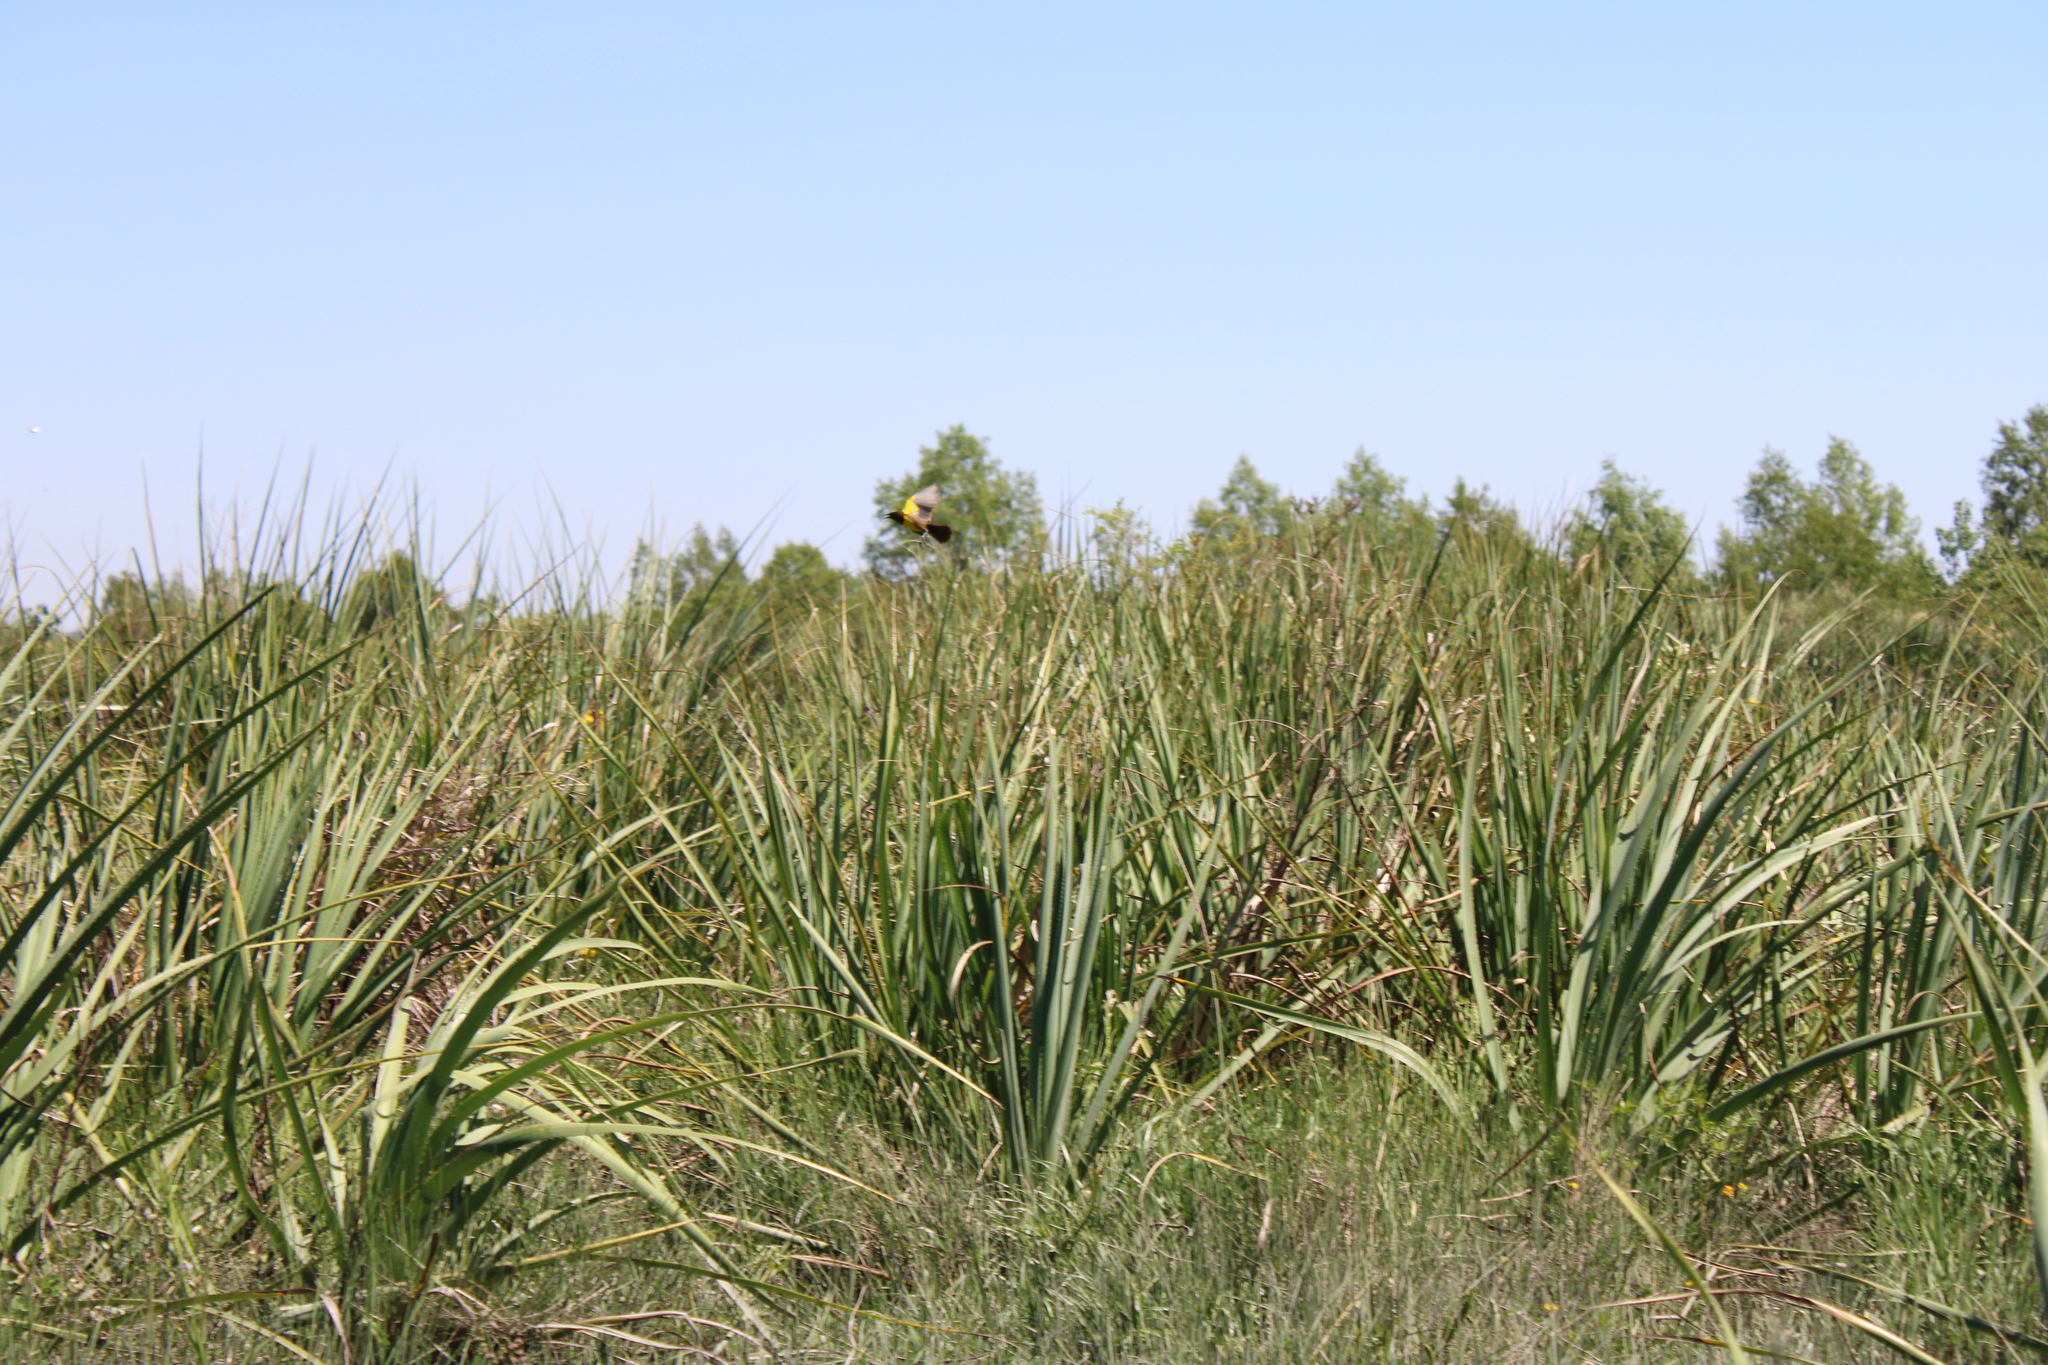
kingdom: Animalia
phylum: Chordata
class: Aves
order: Passeriformes
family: Icteridae
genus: Pseudoleistes
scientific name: Pseudoleistes virescens
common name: Brown-and-yellow marshbird
